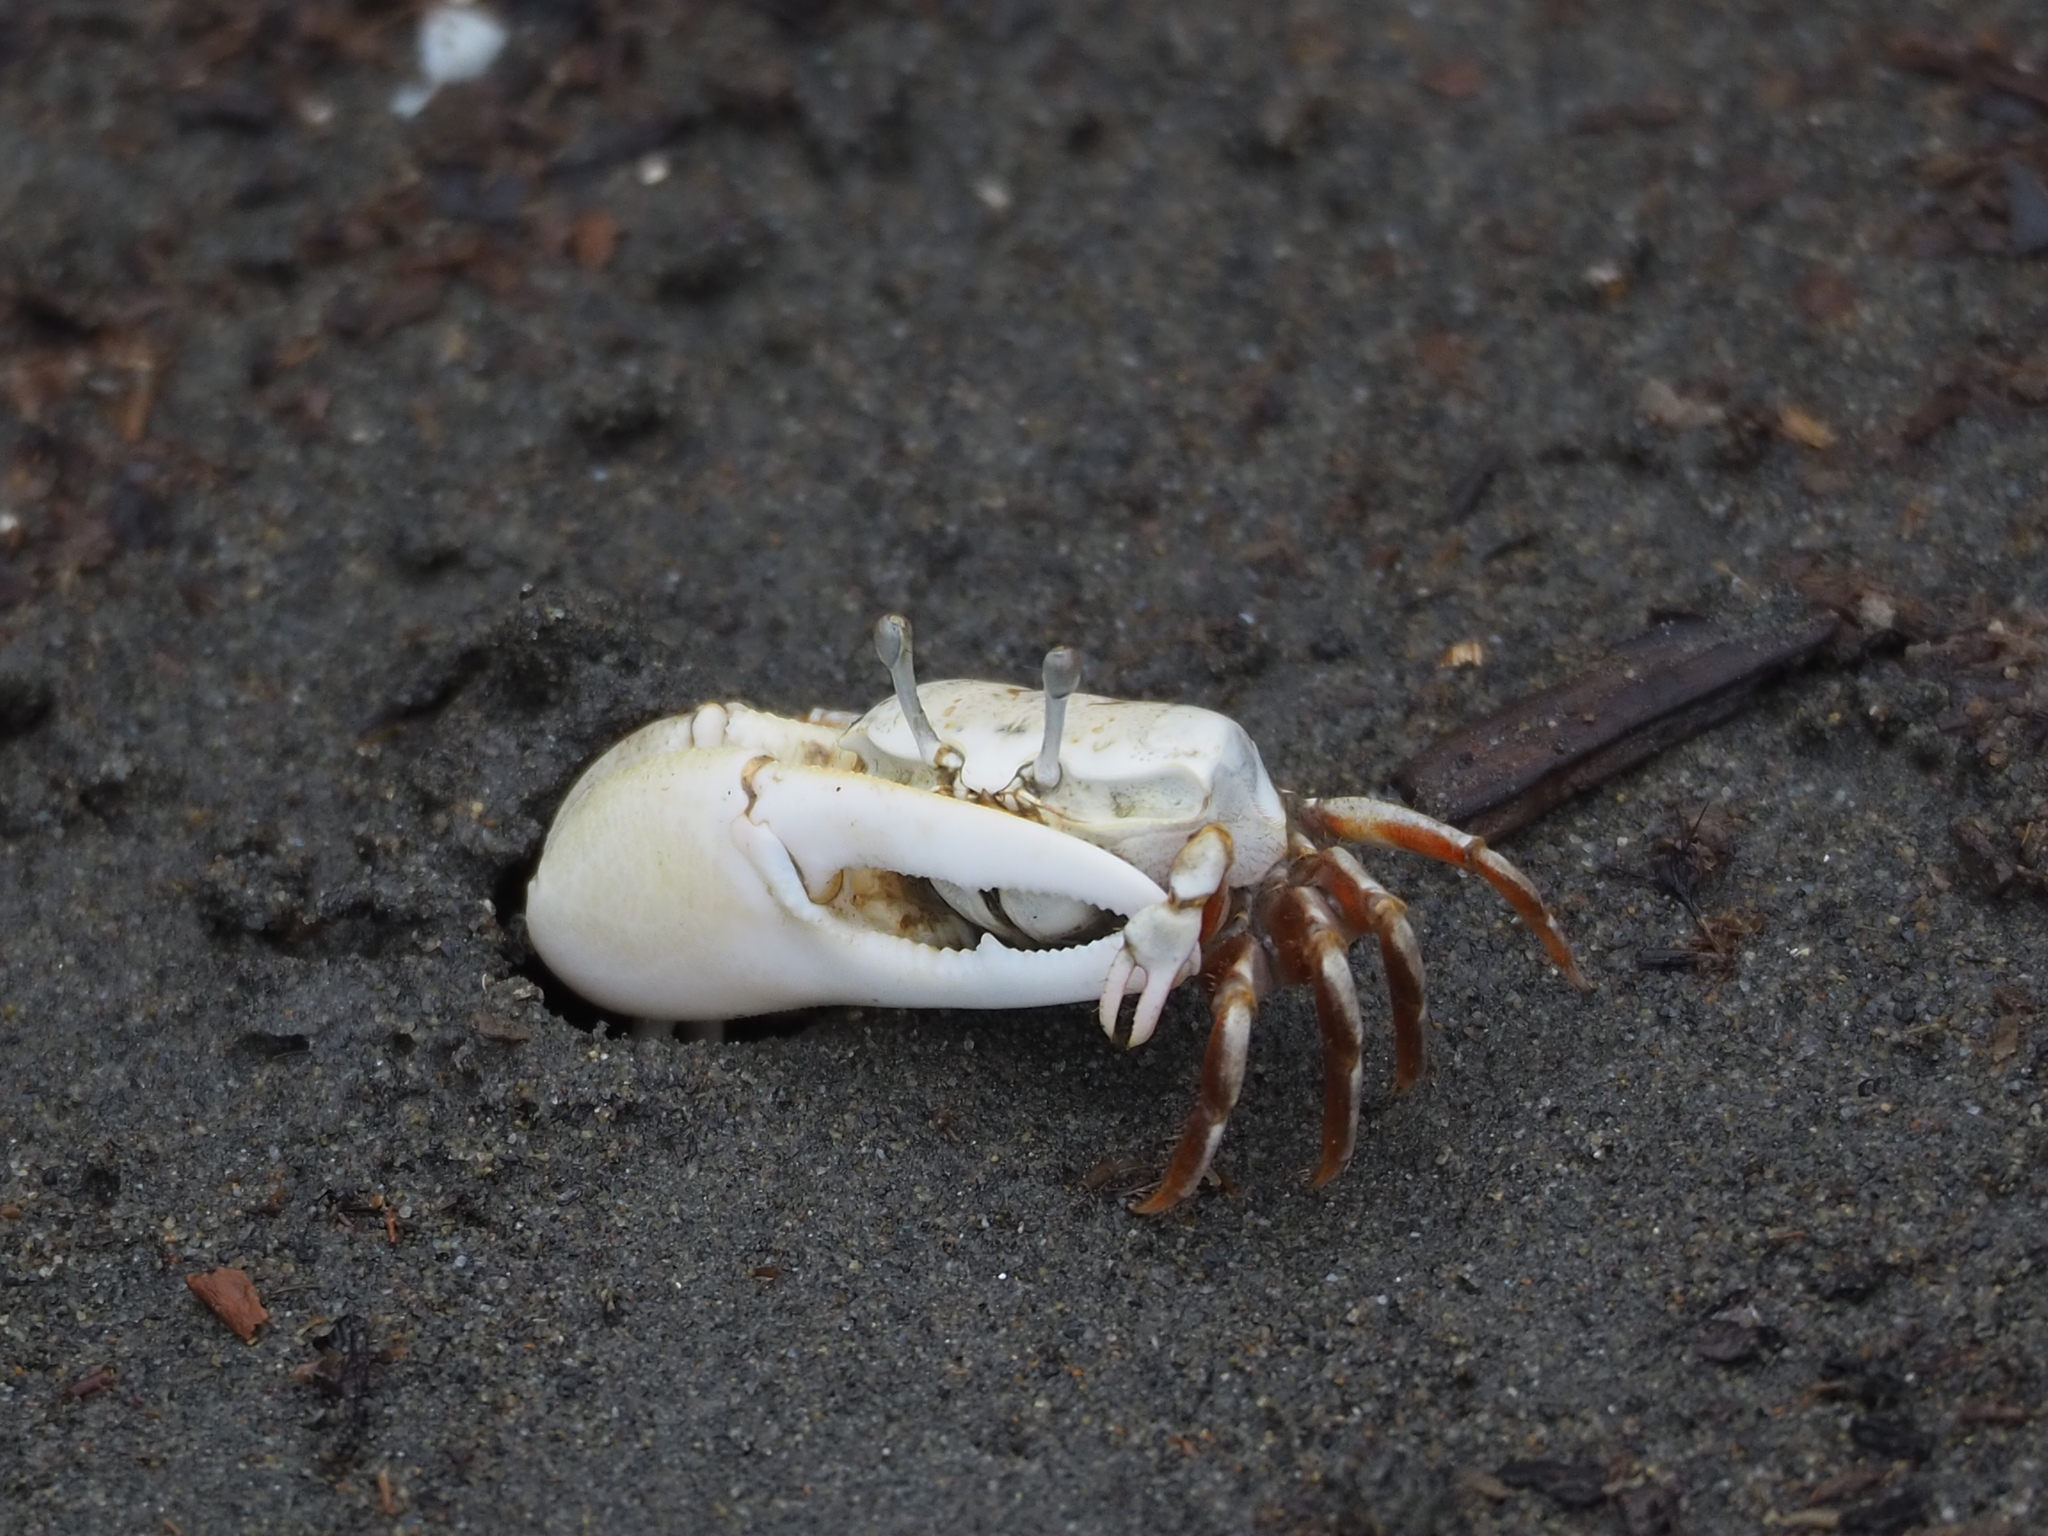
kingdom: Animalia
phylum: Arthropoda
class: Malacostraca
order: Decapoda
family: Ocypodidae
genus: Austruca
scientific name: Austruca lactea
